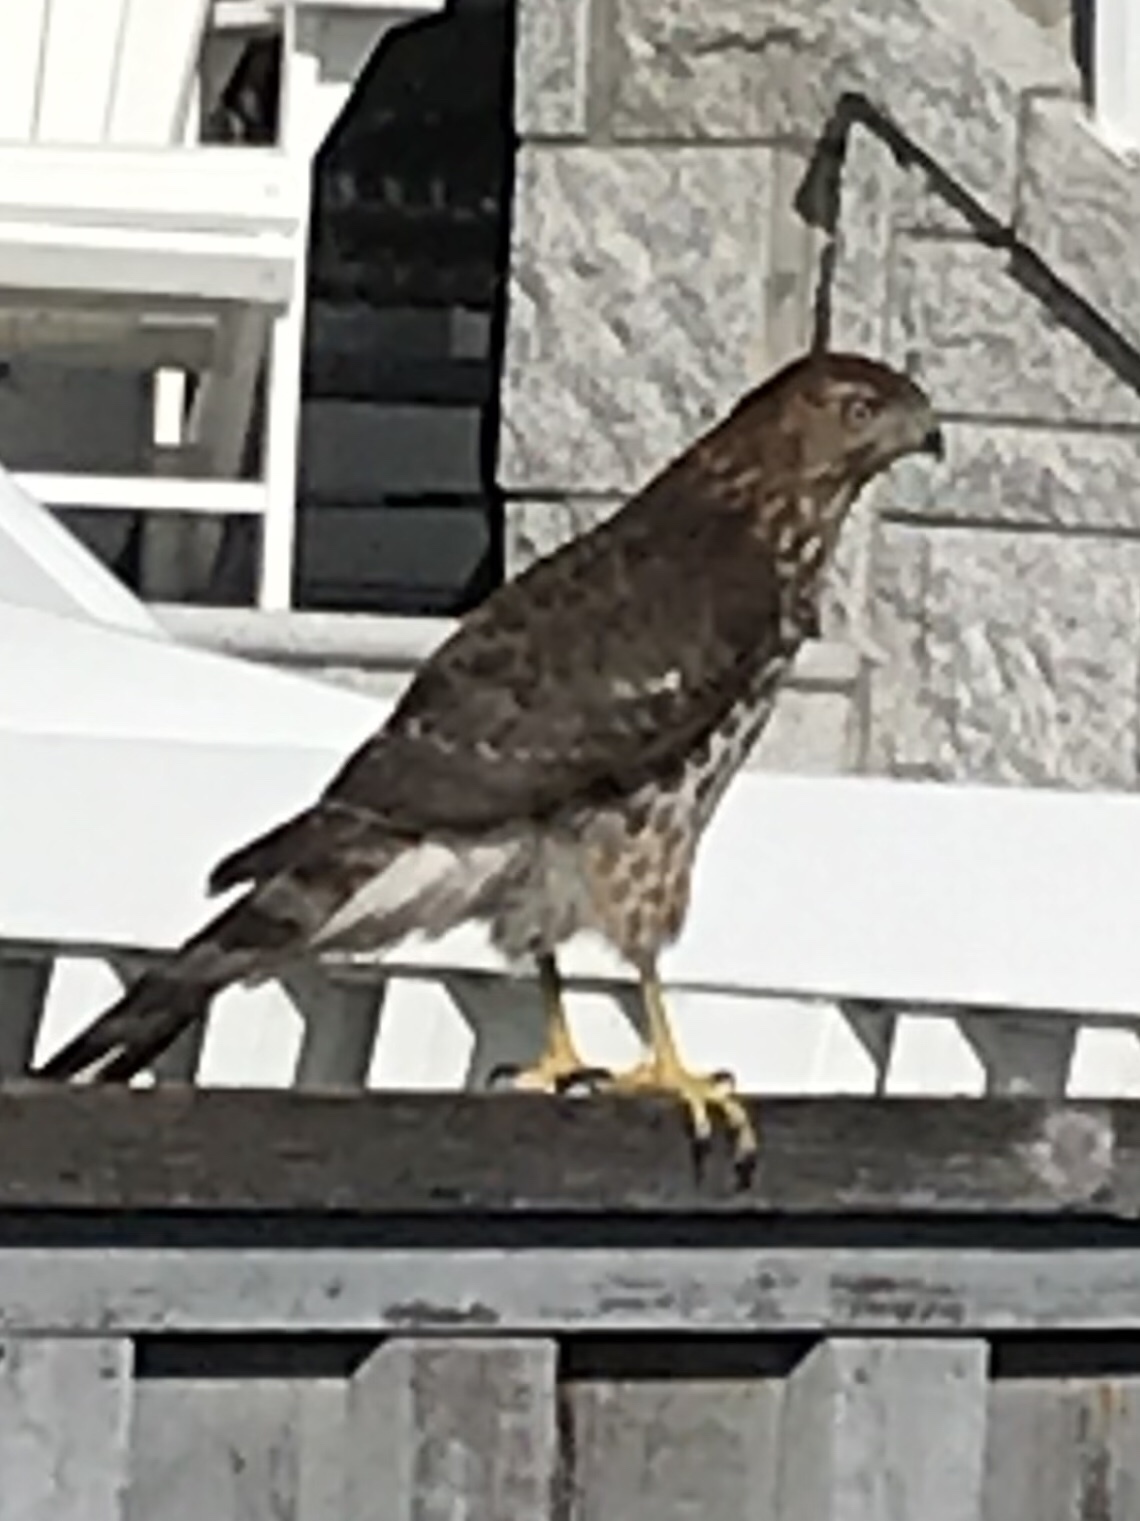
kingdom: Animalia
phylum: Chordata
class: Aves
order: Accipitriformes
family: Accipitridae
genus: Accipiter
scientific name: Accipiter cooperii
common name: Cooper's hawk
